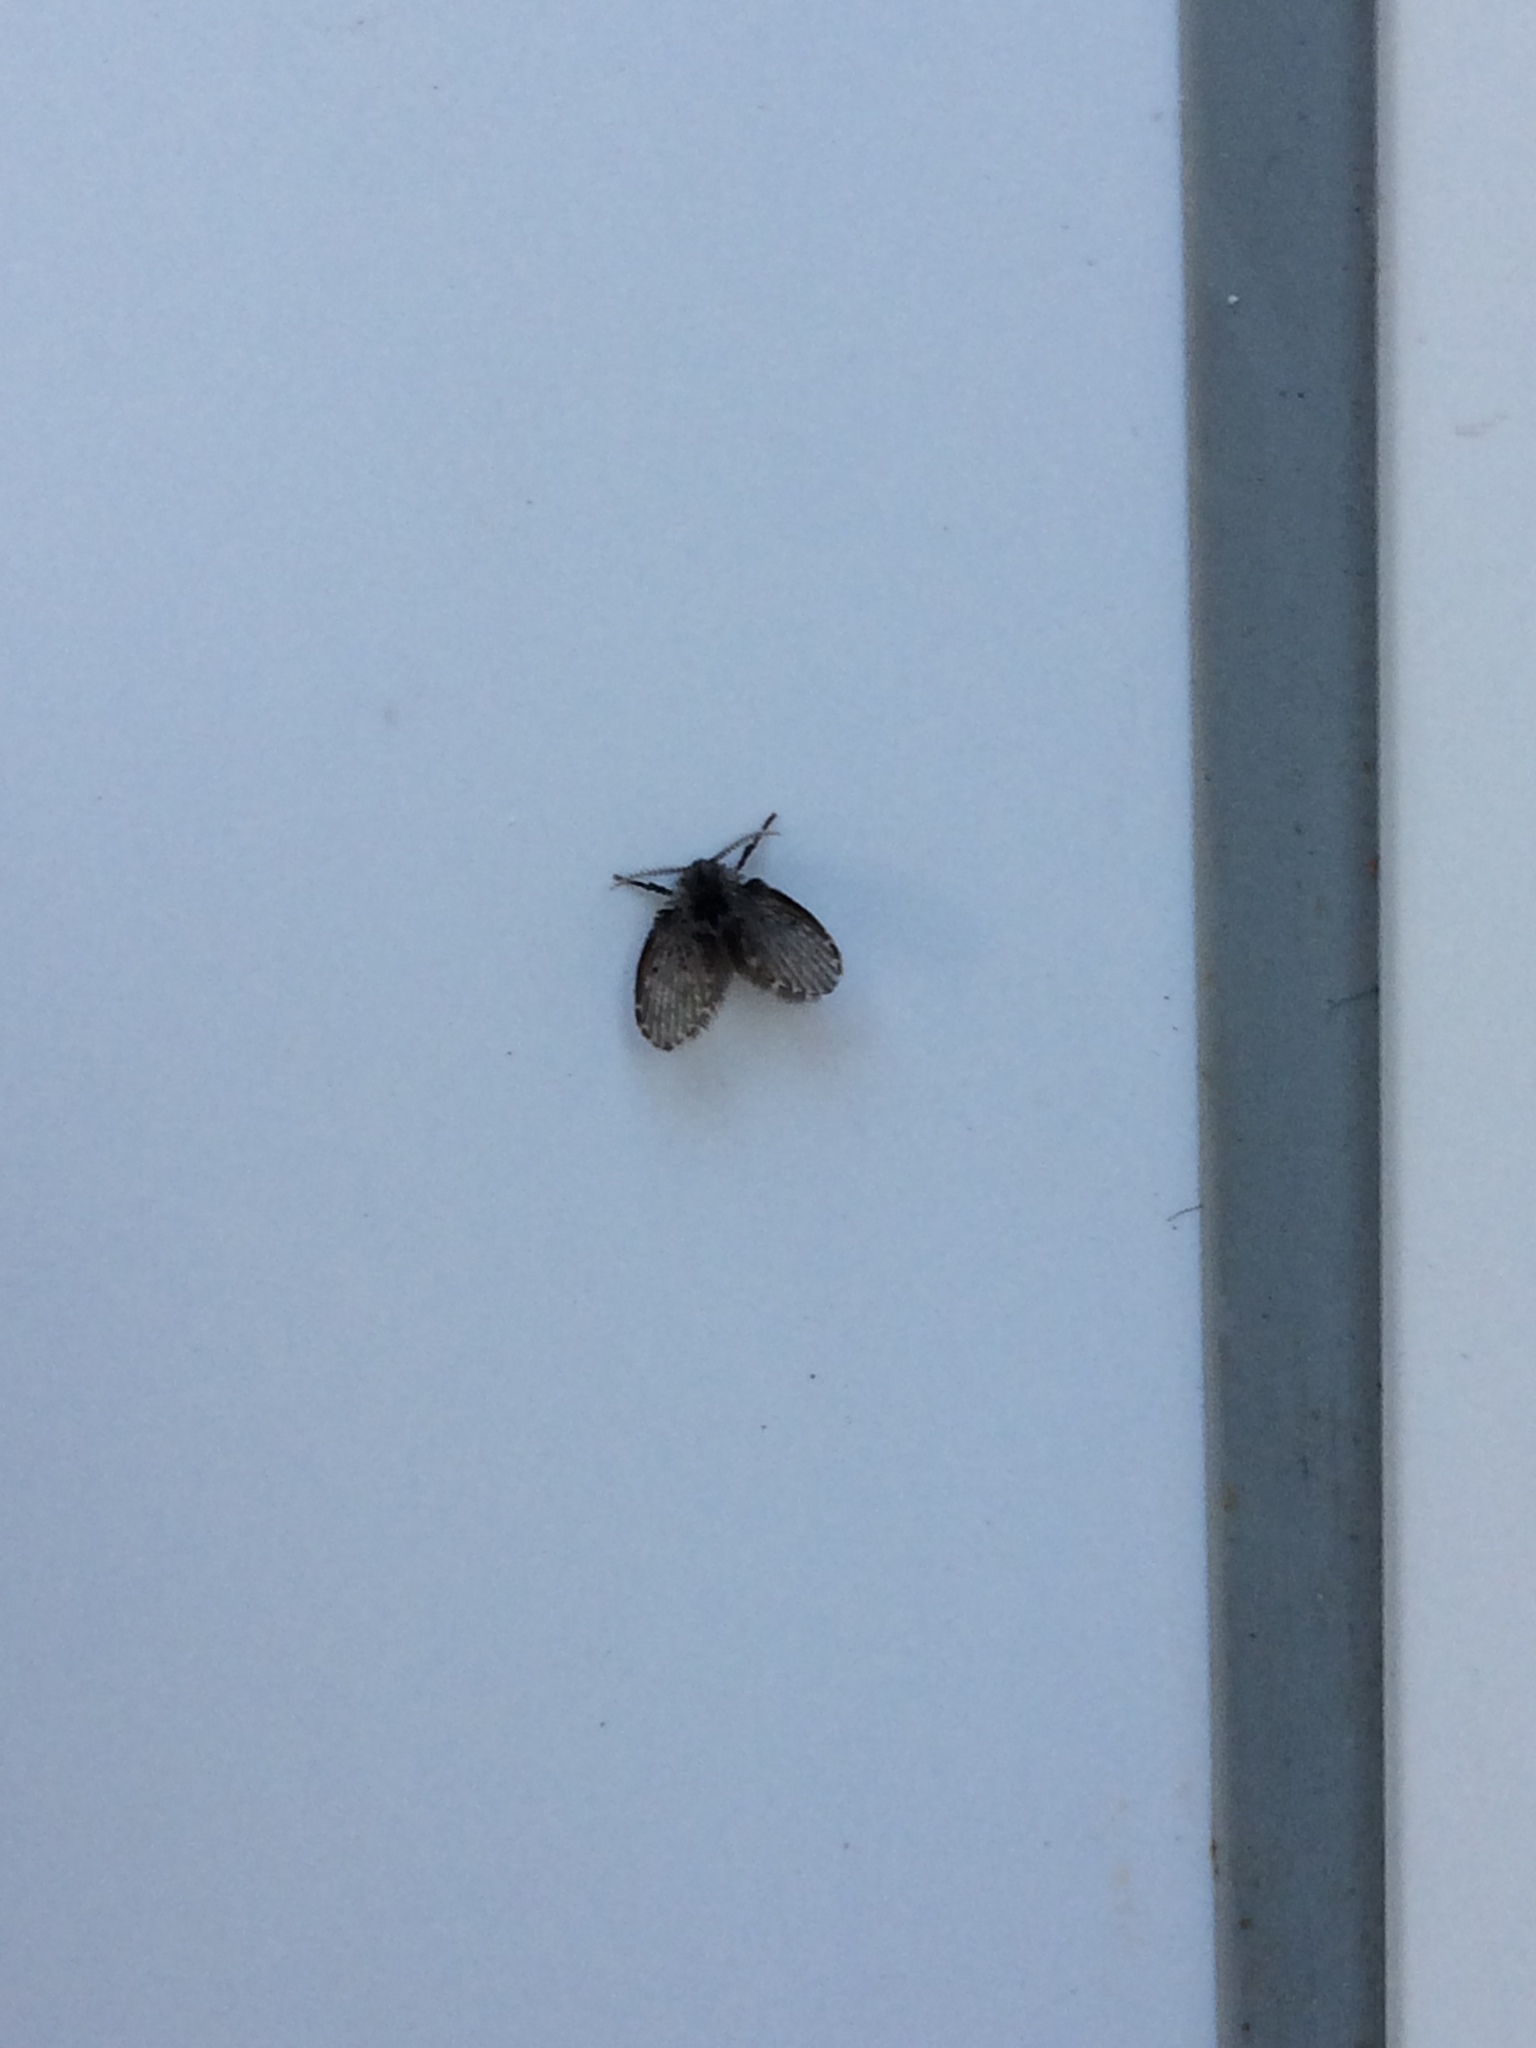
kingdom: Animalia
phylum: Arthropoda
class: Insecta
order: Diptera
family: Psychodidae
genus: Clogmia
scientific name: Clogmia albipunctatus
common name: White-spotted moth fly
